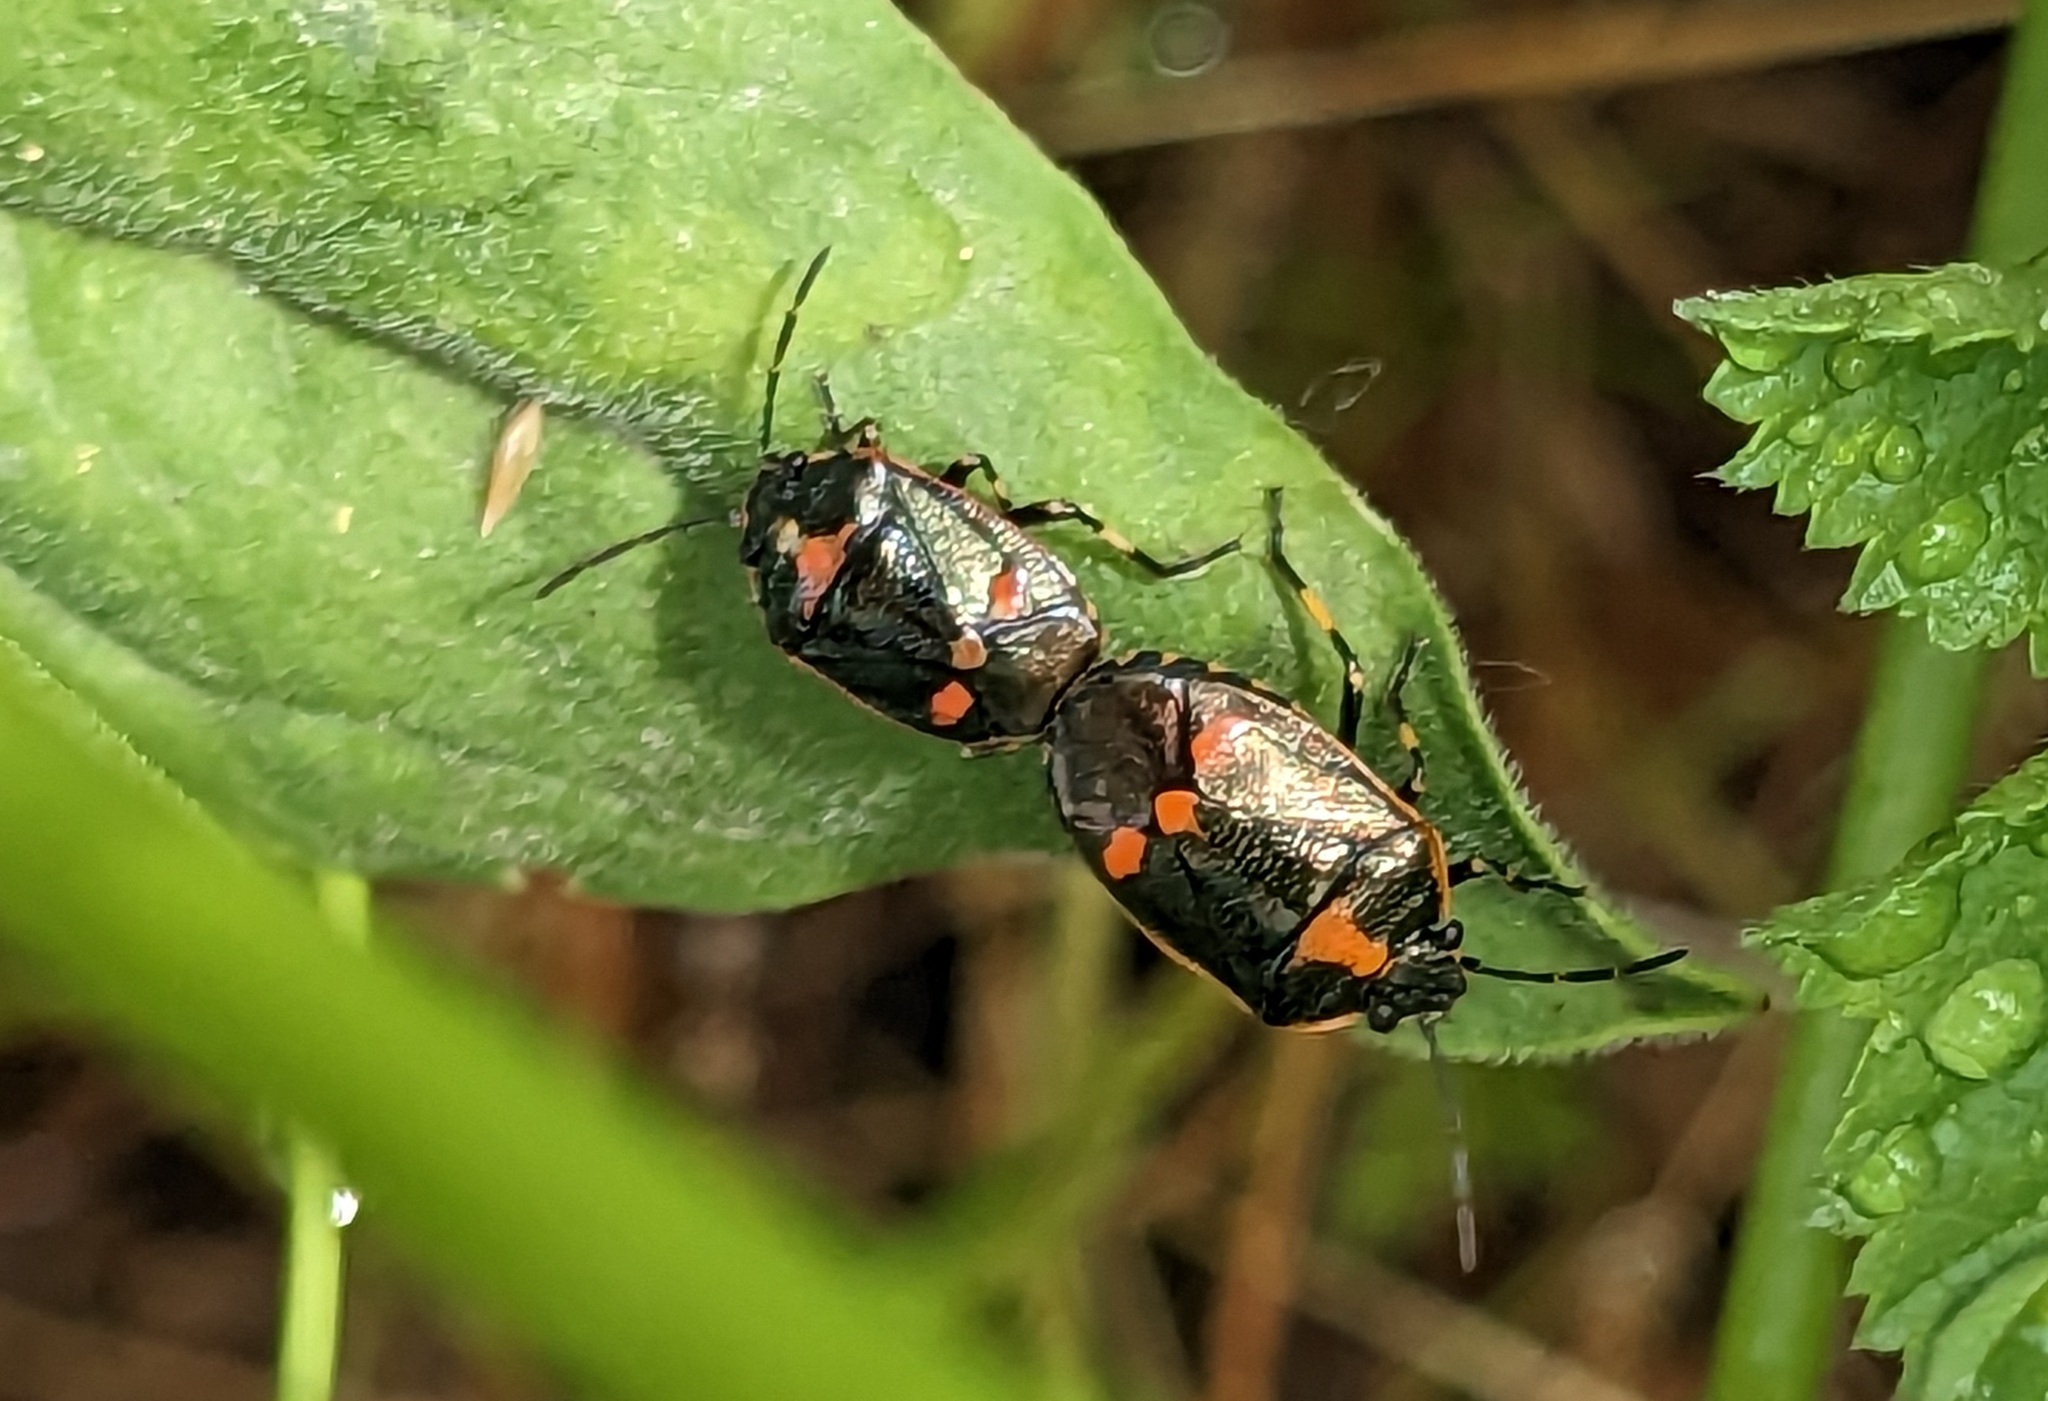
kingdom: Animalia
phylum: Arthropoda
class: Insecta
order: Hemiptera
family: Pentatomidae
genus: Eurydema
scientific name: Eurydema oleracea
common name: Cabbage bug
